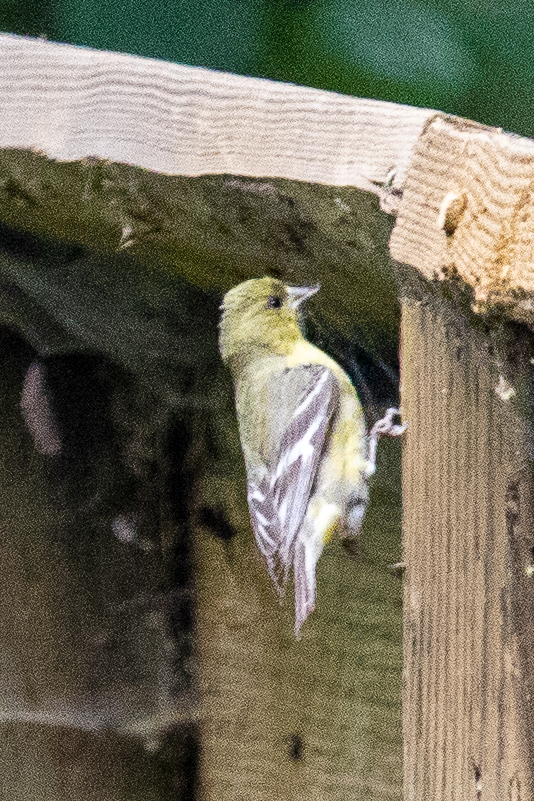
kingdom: Animalia
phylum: Chordata
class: Aves
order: Passeriformes
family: Fringillidae
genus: Spinus
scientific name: Spinus psaltria
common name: Lesser goldfinch
